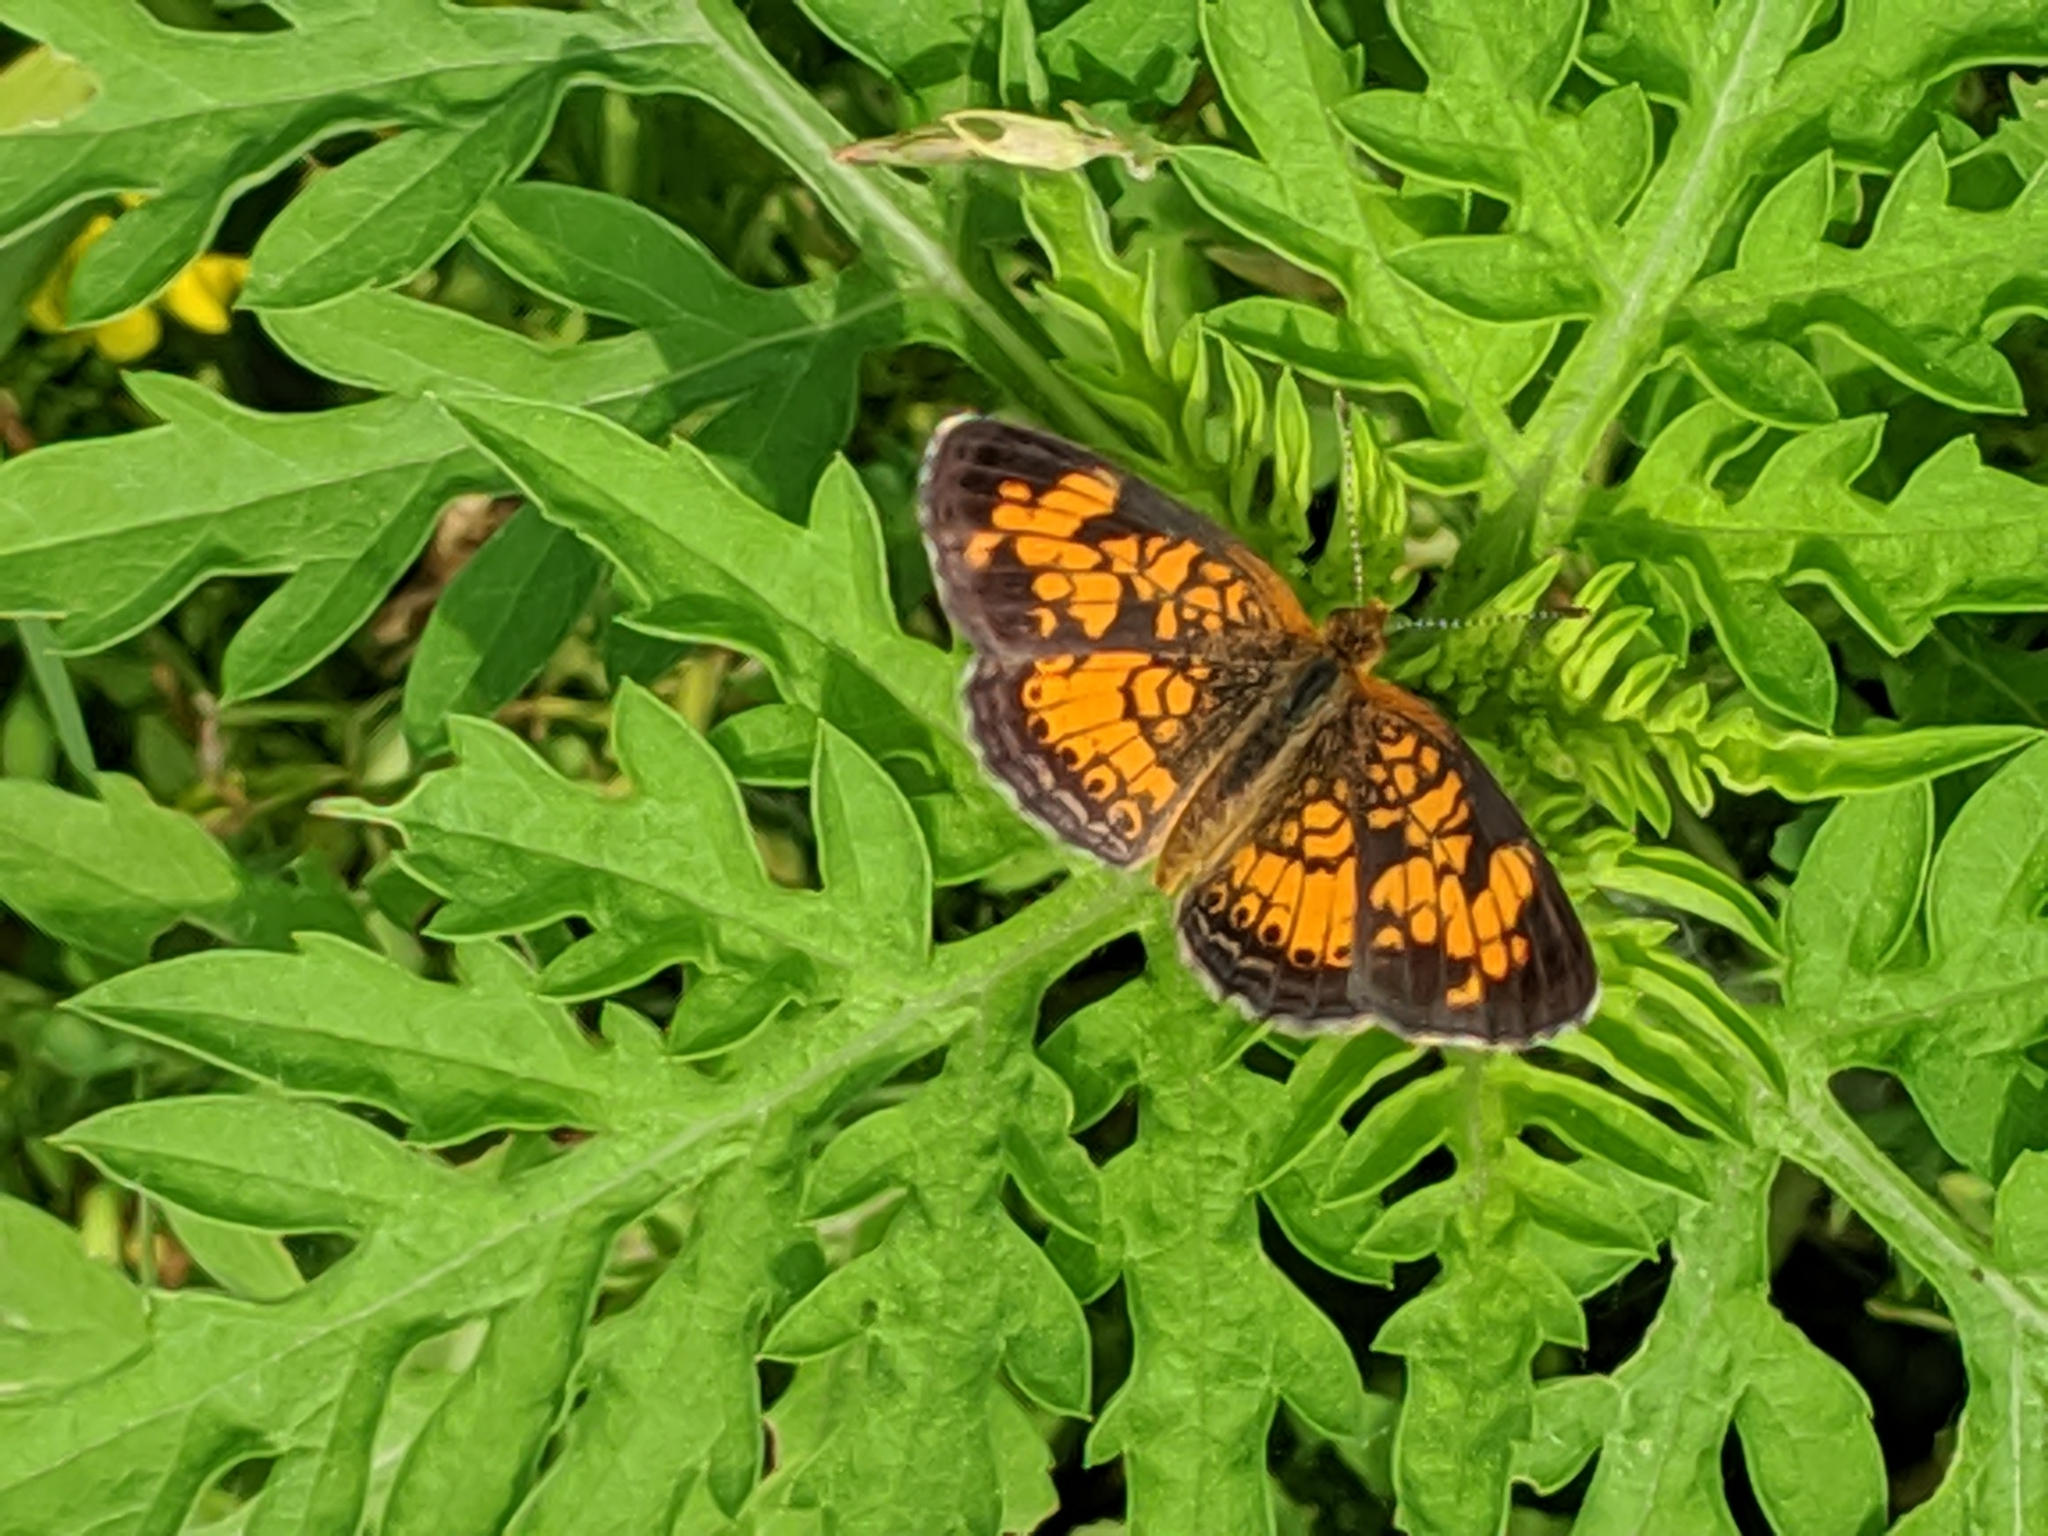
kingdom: Animalia
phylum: Arthropoda
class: Insecta
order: Lepidoptera
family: Nymphalidae
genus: Phyciodes
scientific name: Phyciodes tharos
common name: Pearl crescent
